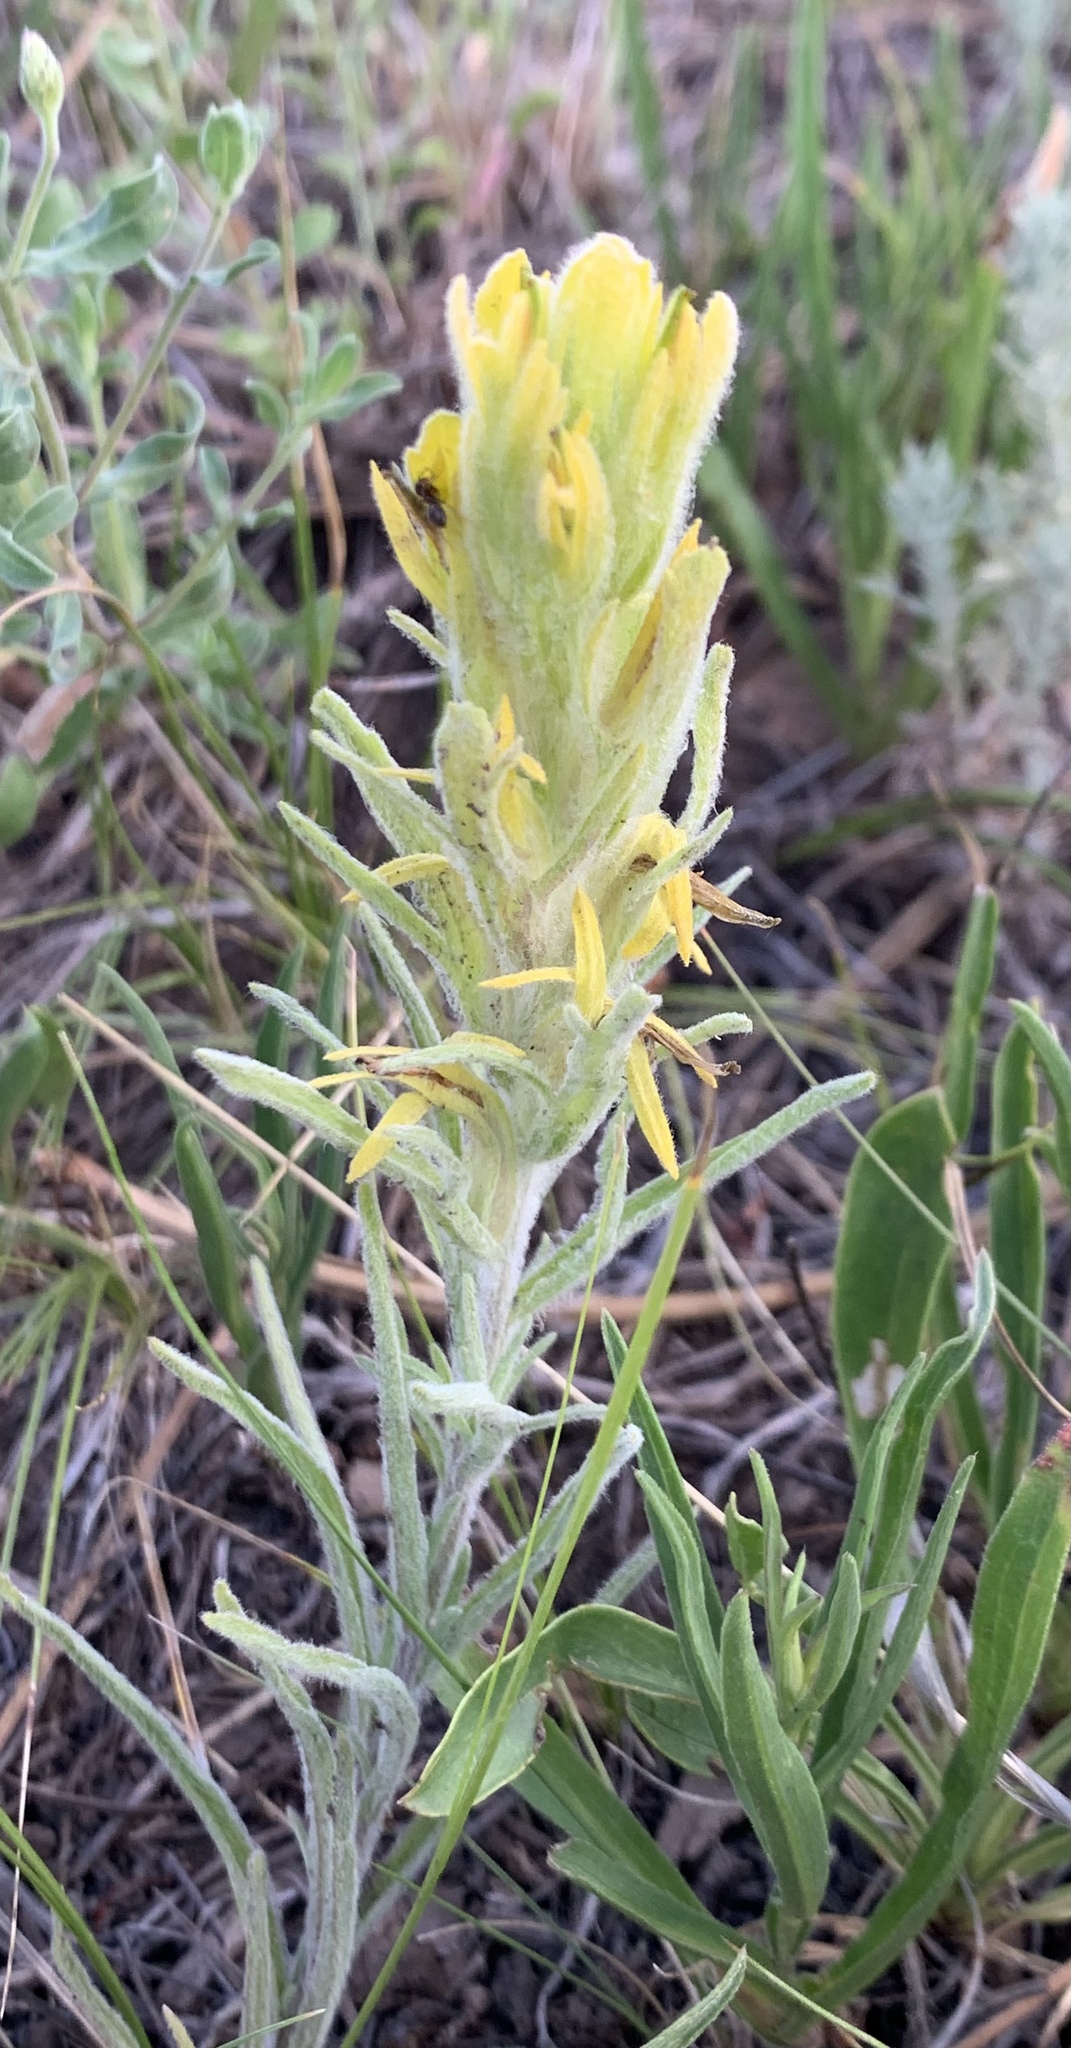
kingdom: Plantae
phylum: Tracheophyta
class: Magnoliopsida
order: Lamiales
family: Orobanchaceae
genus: Castilleja
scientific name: Castilleja lineata
